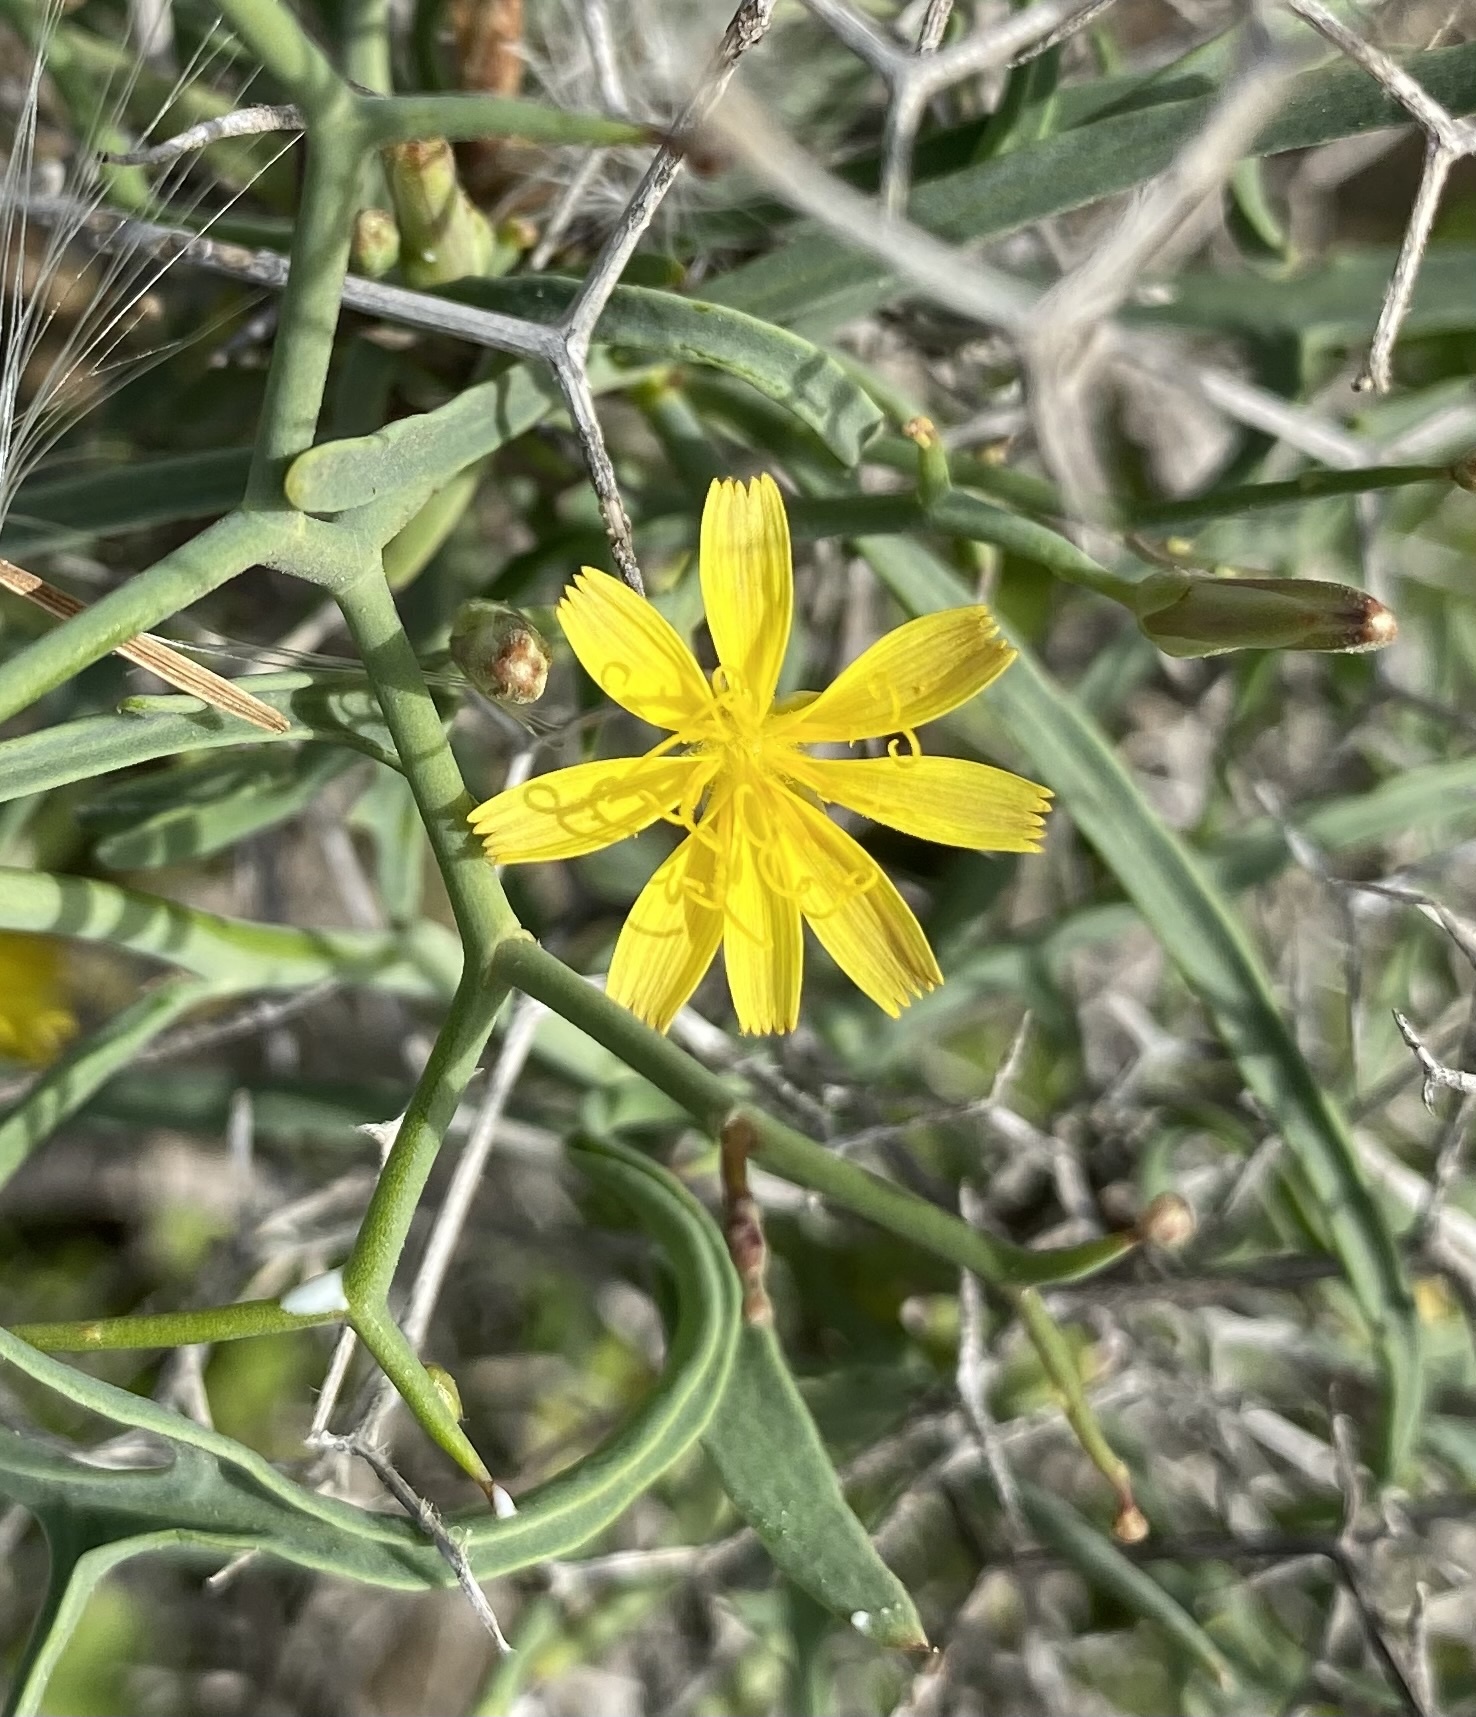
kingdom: Plantae
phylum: Tracheophyta
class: Magnoliopsida
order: Asterales
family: Asteraceae
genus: Launaea
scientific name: Launaea arborescens
